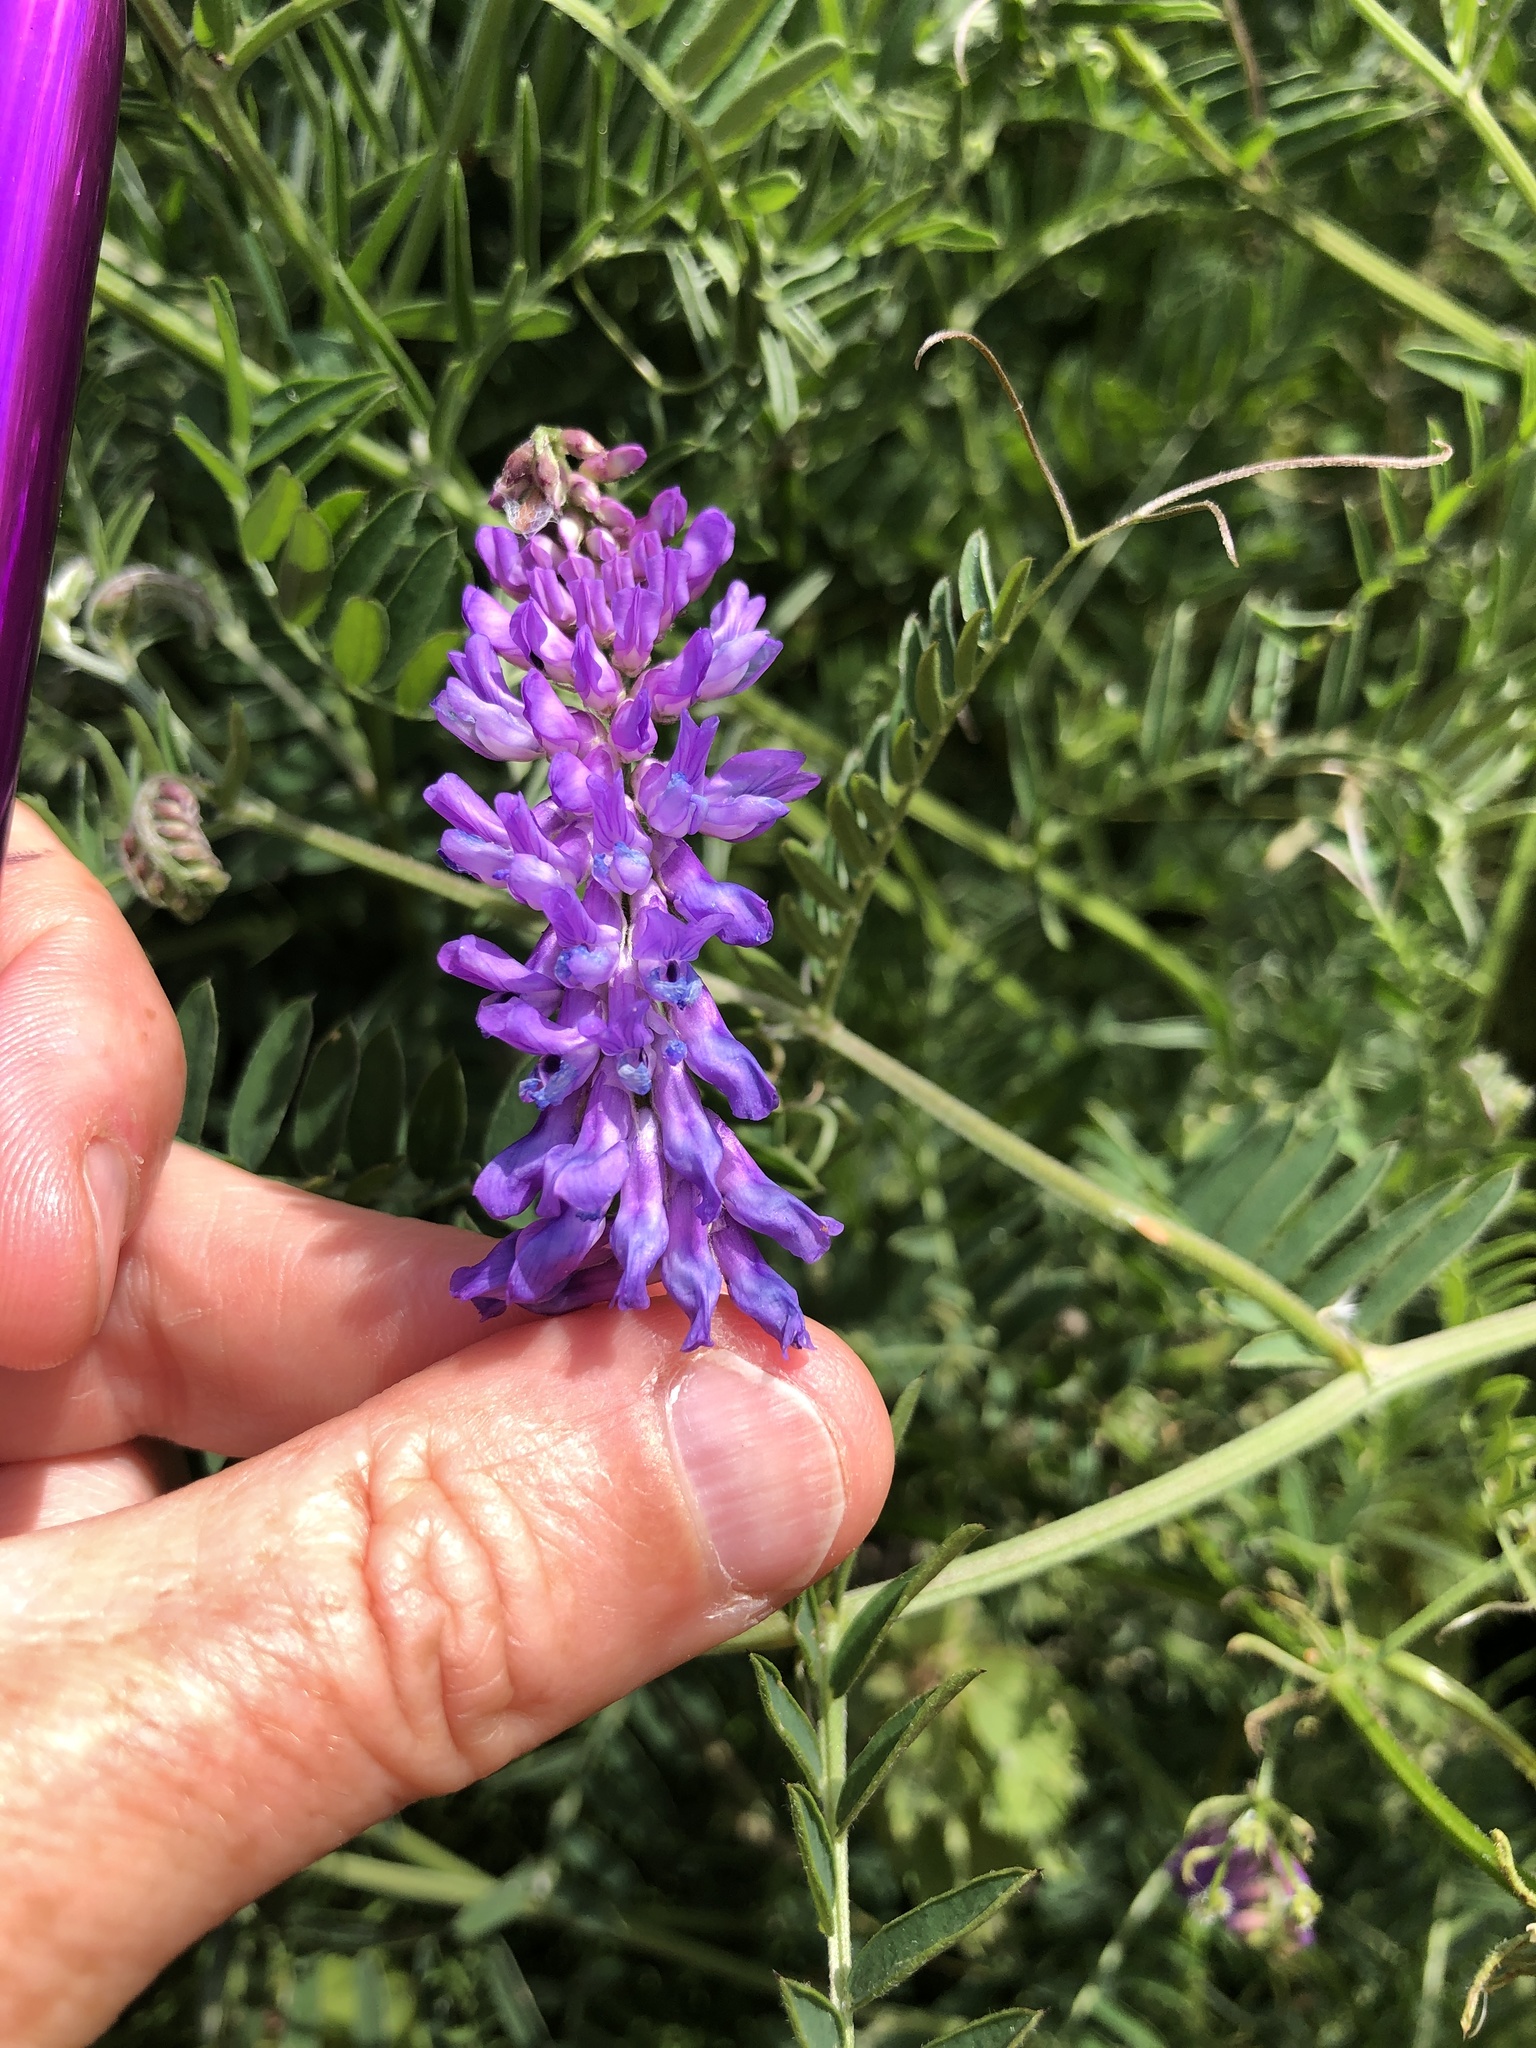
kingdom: Plantae
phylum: Tracheophyta
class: Magnoliopsida
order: Fabales
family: Fabaceae
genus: Vicia
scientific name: Vicia cracca
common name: Bird vetch
